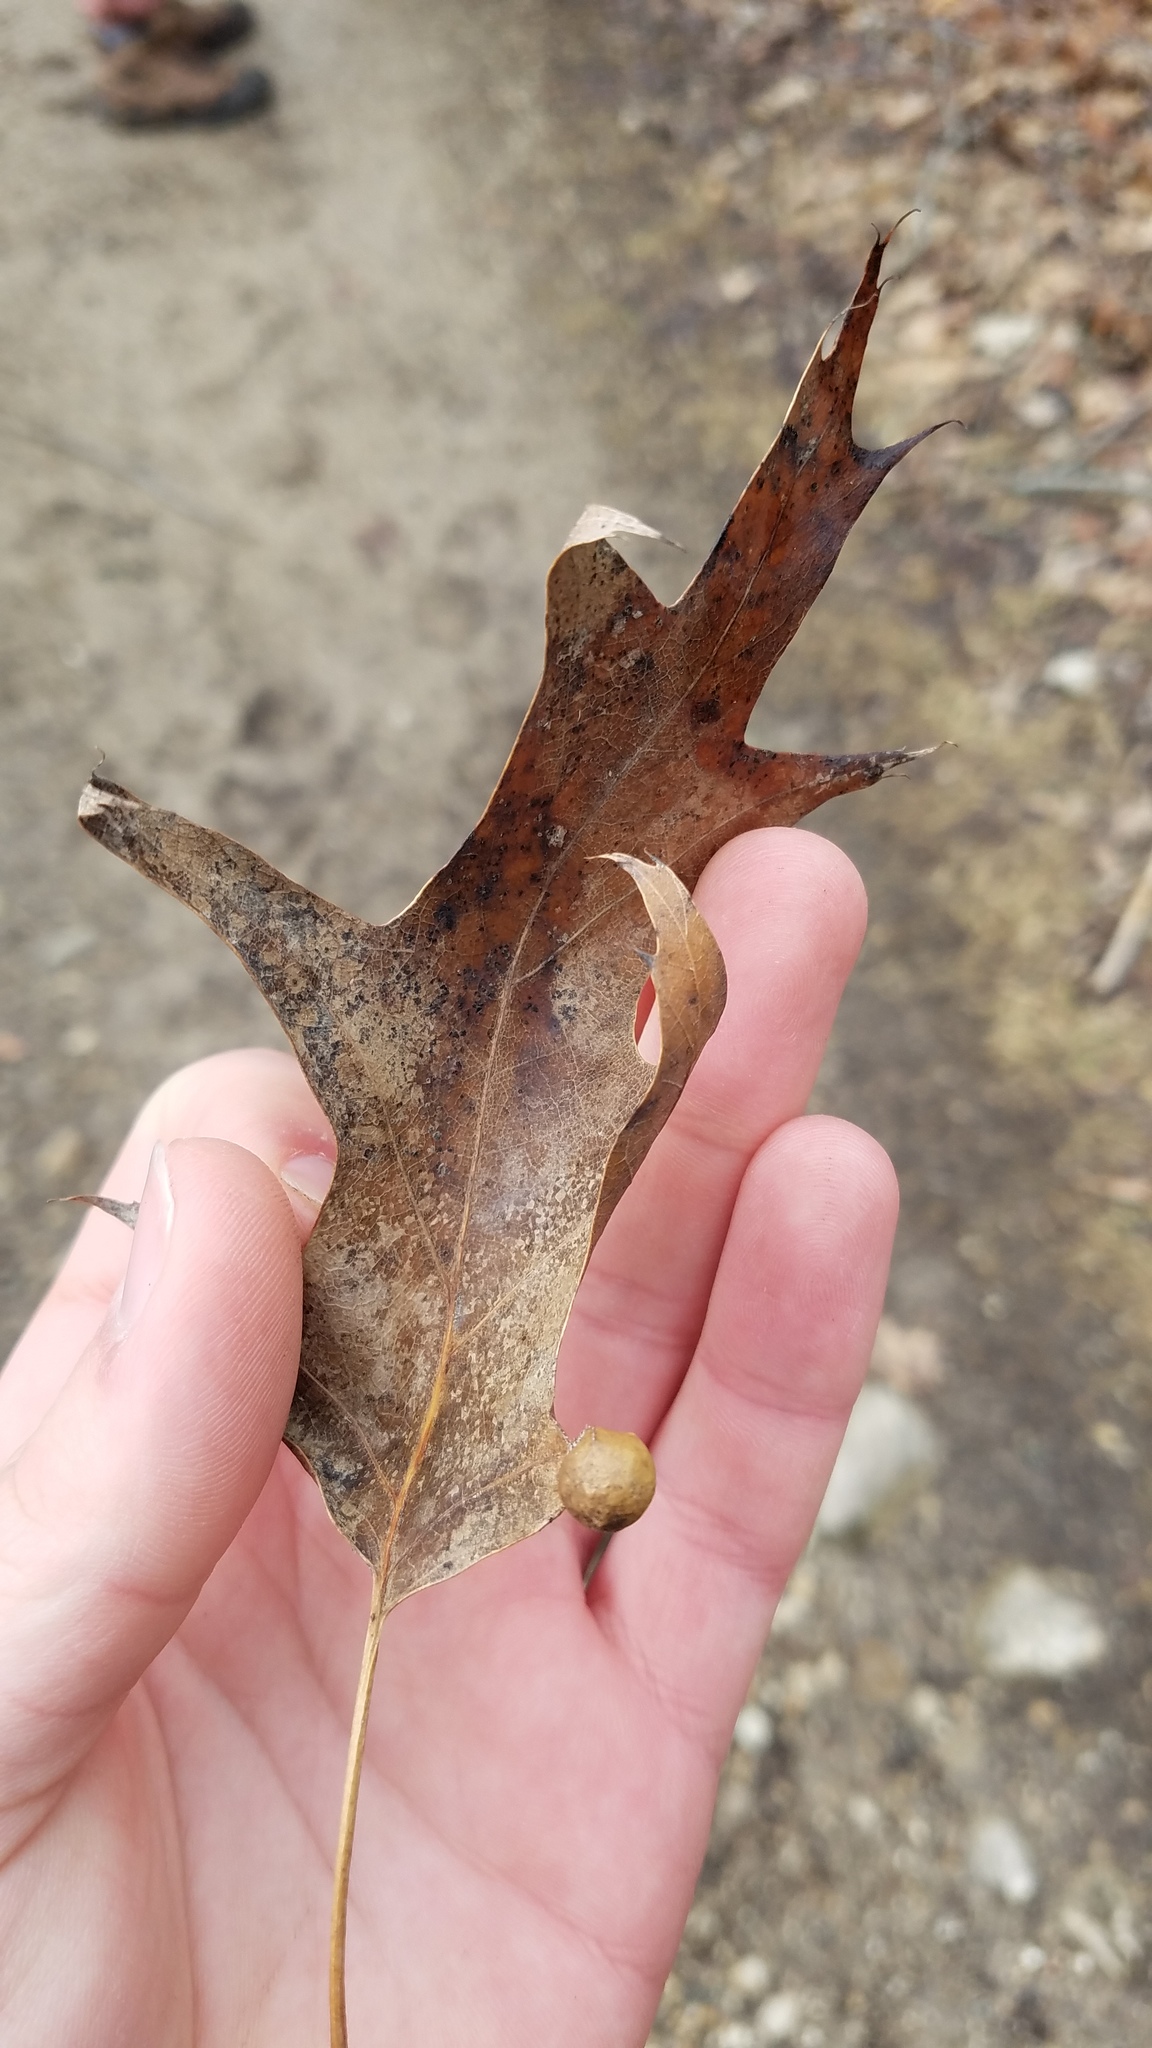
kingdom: Animalia
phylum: Arthropoda
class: Insecta
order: Hymenoptera
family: Cynipidae
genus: Amphibolips
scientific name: Amphibolips
